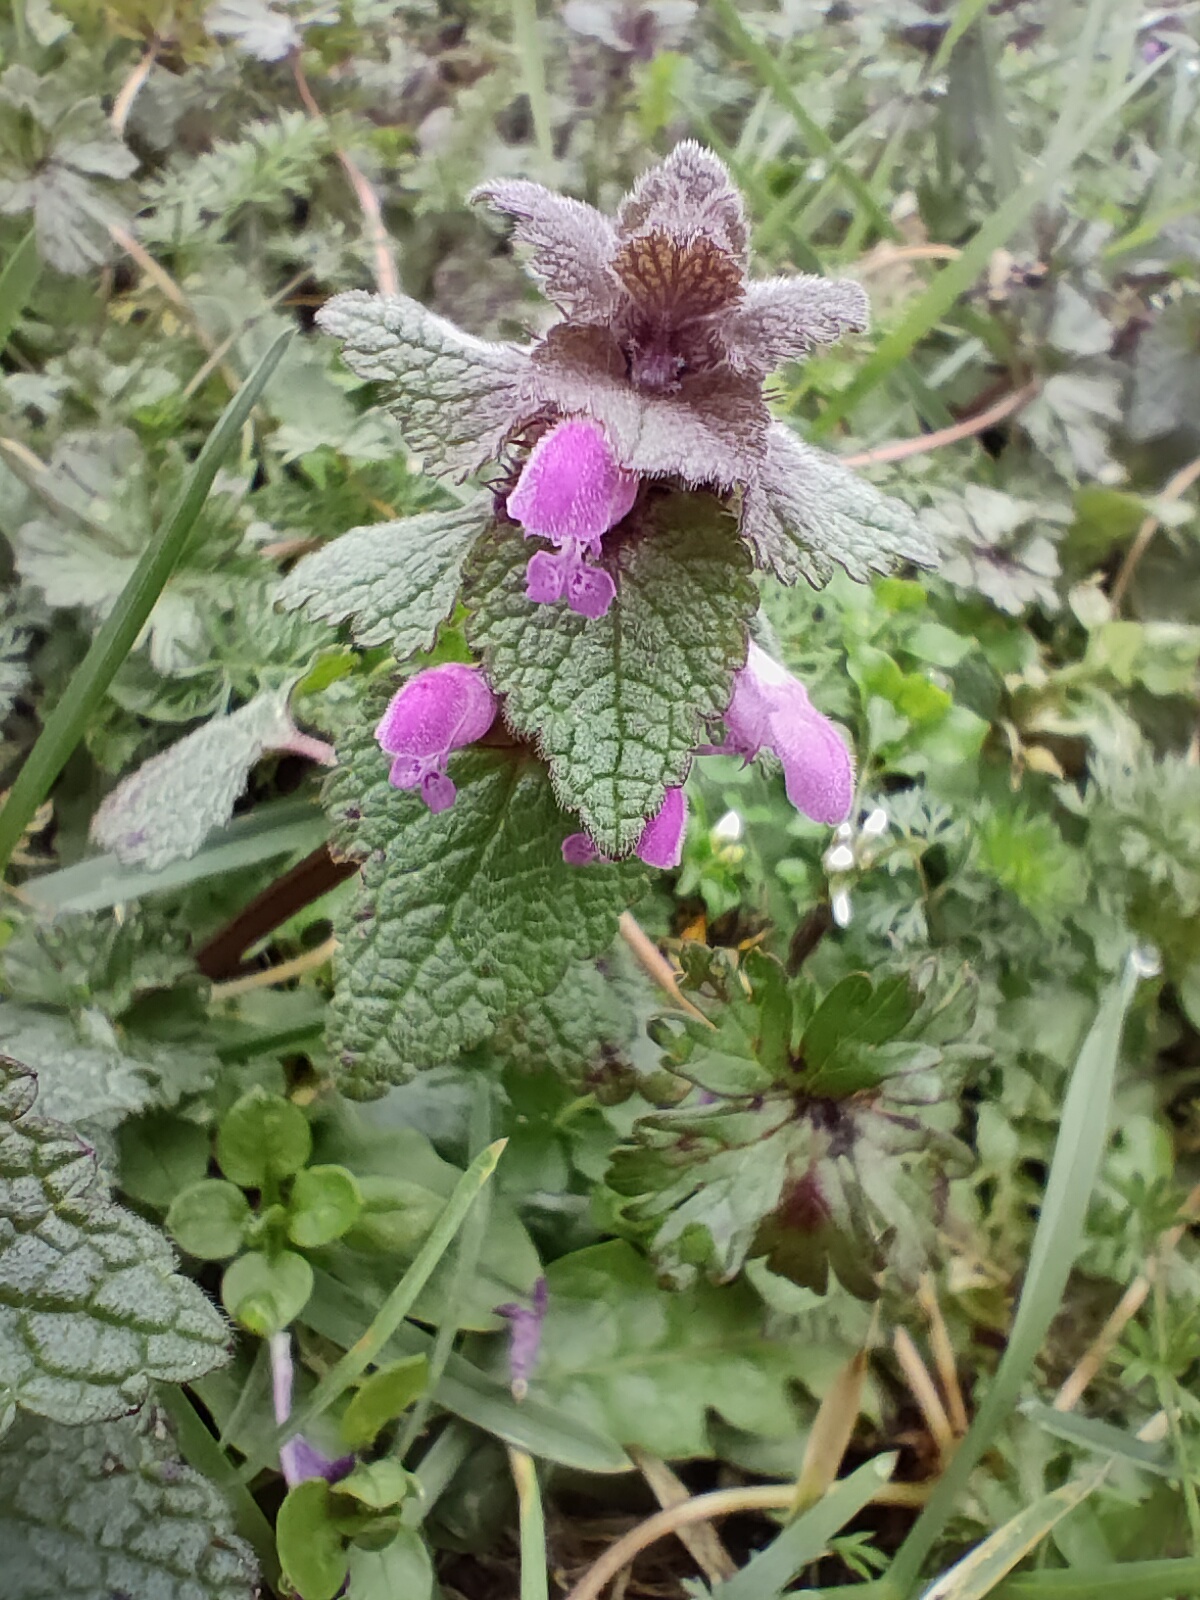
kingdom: Plantae
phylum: Tracheophyta
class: Magnoliopsida
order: Lamiales
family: Lamiaceae
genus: Lamium
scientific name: Lamium purpureum
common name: Red dead-nettle
